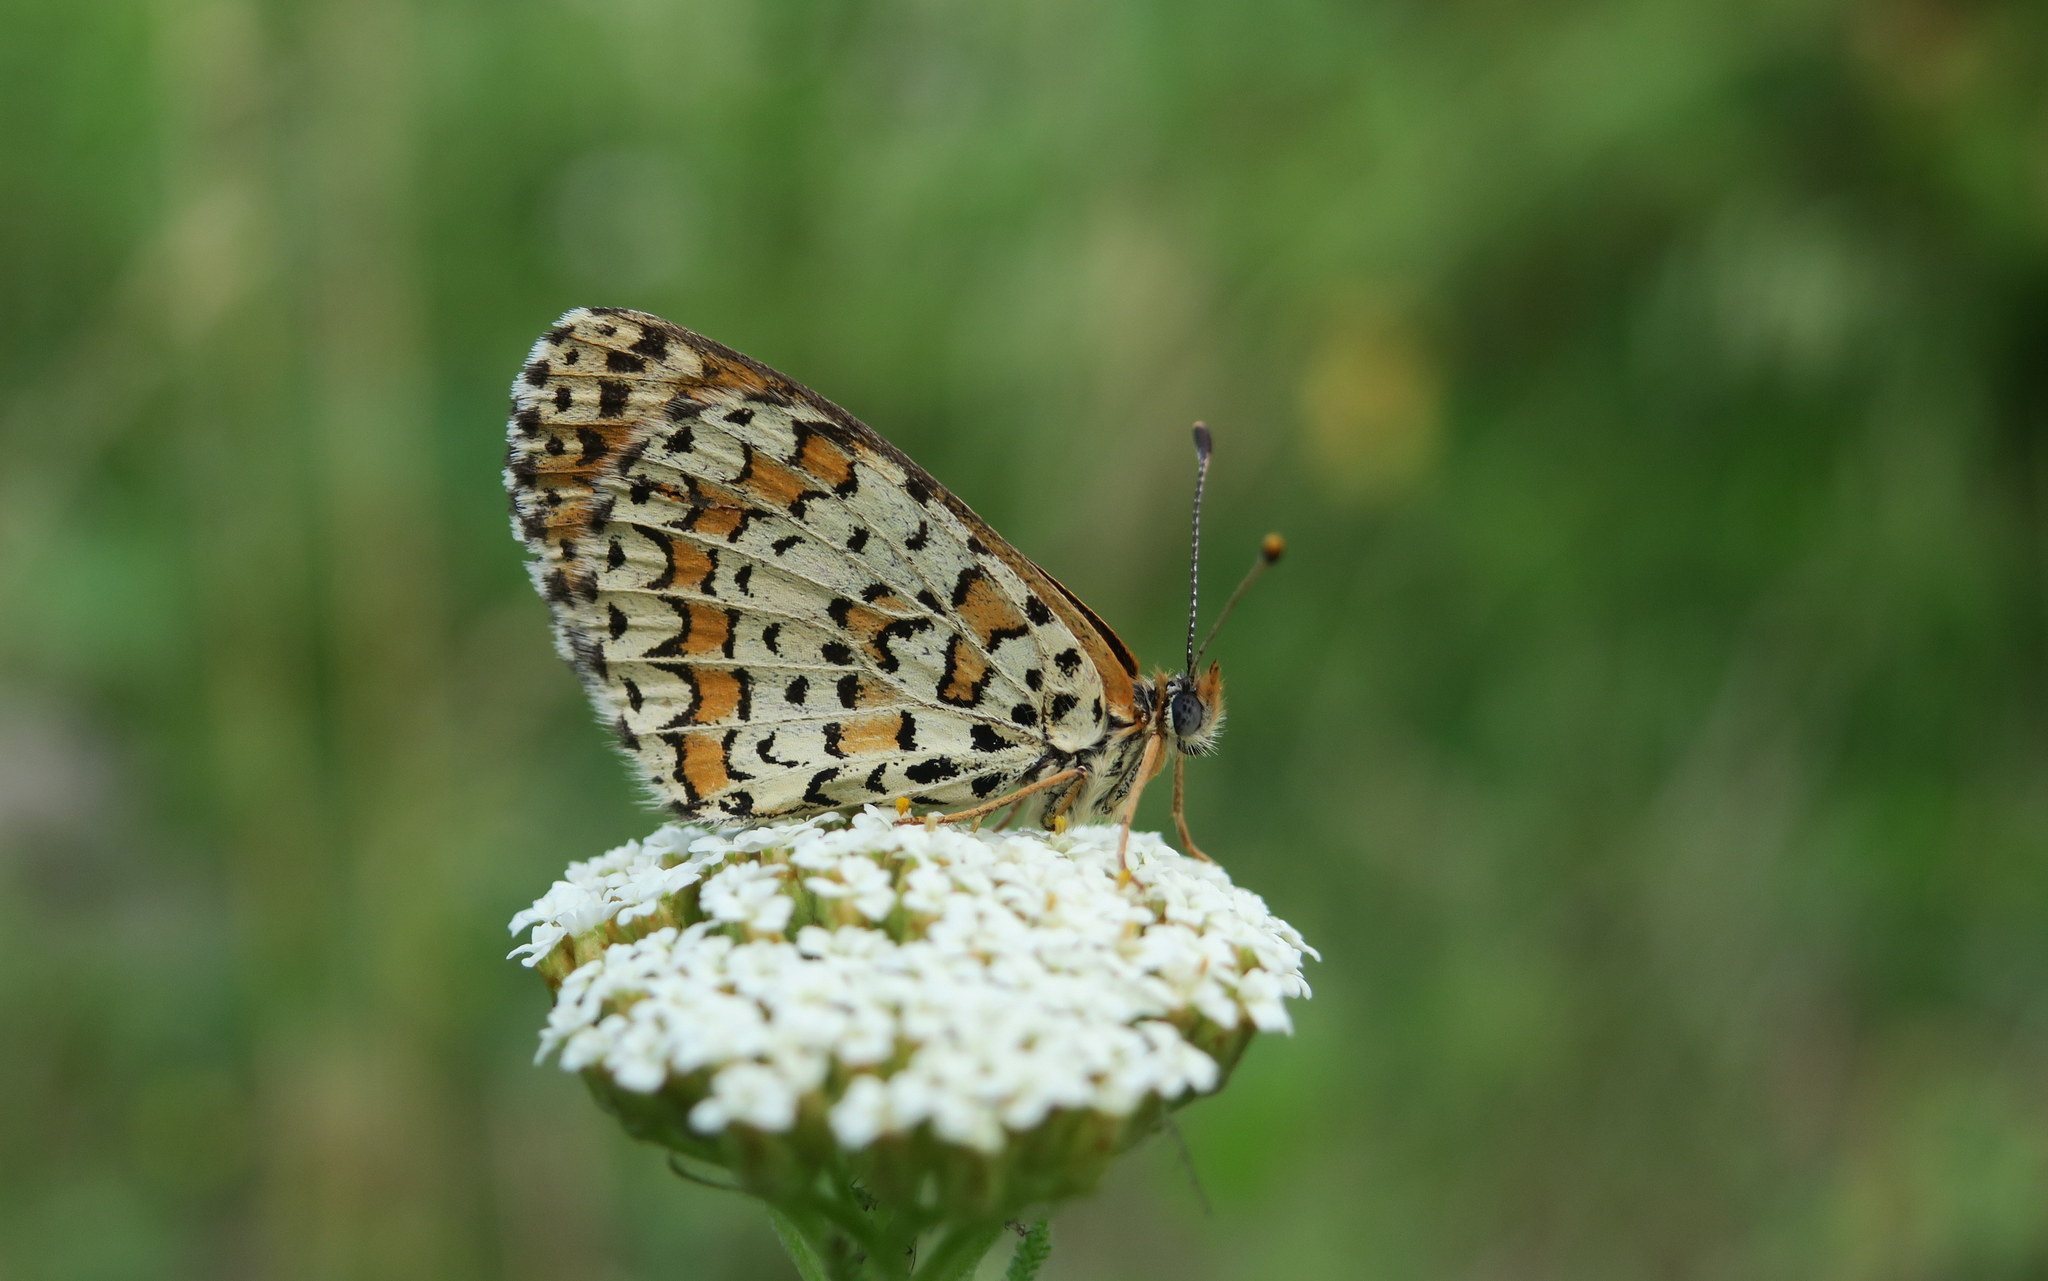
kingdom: Animalia
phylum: Arthropoda
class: Insecta
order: Lepidoptera
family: Nymphalidae
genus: Melitaea
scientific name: Melitaea trivia
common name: Lesser spotted fritillary
